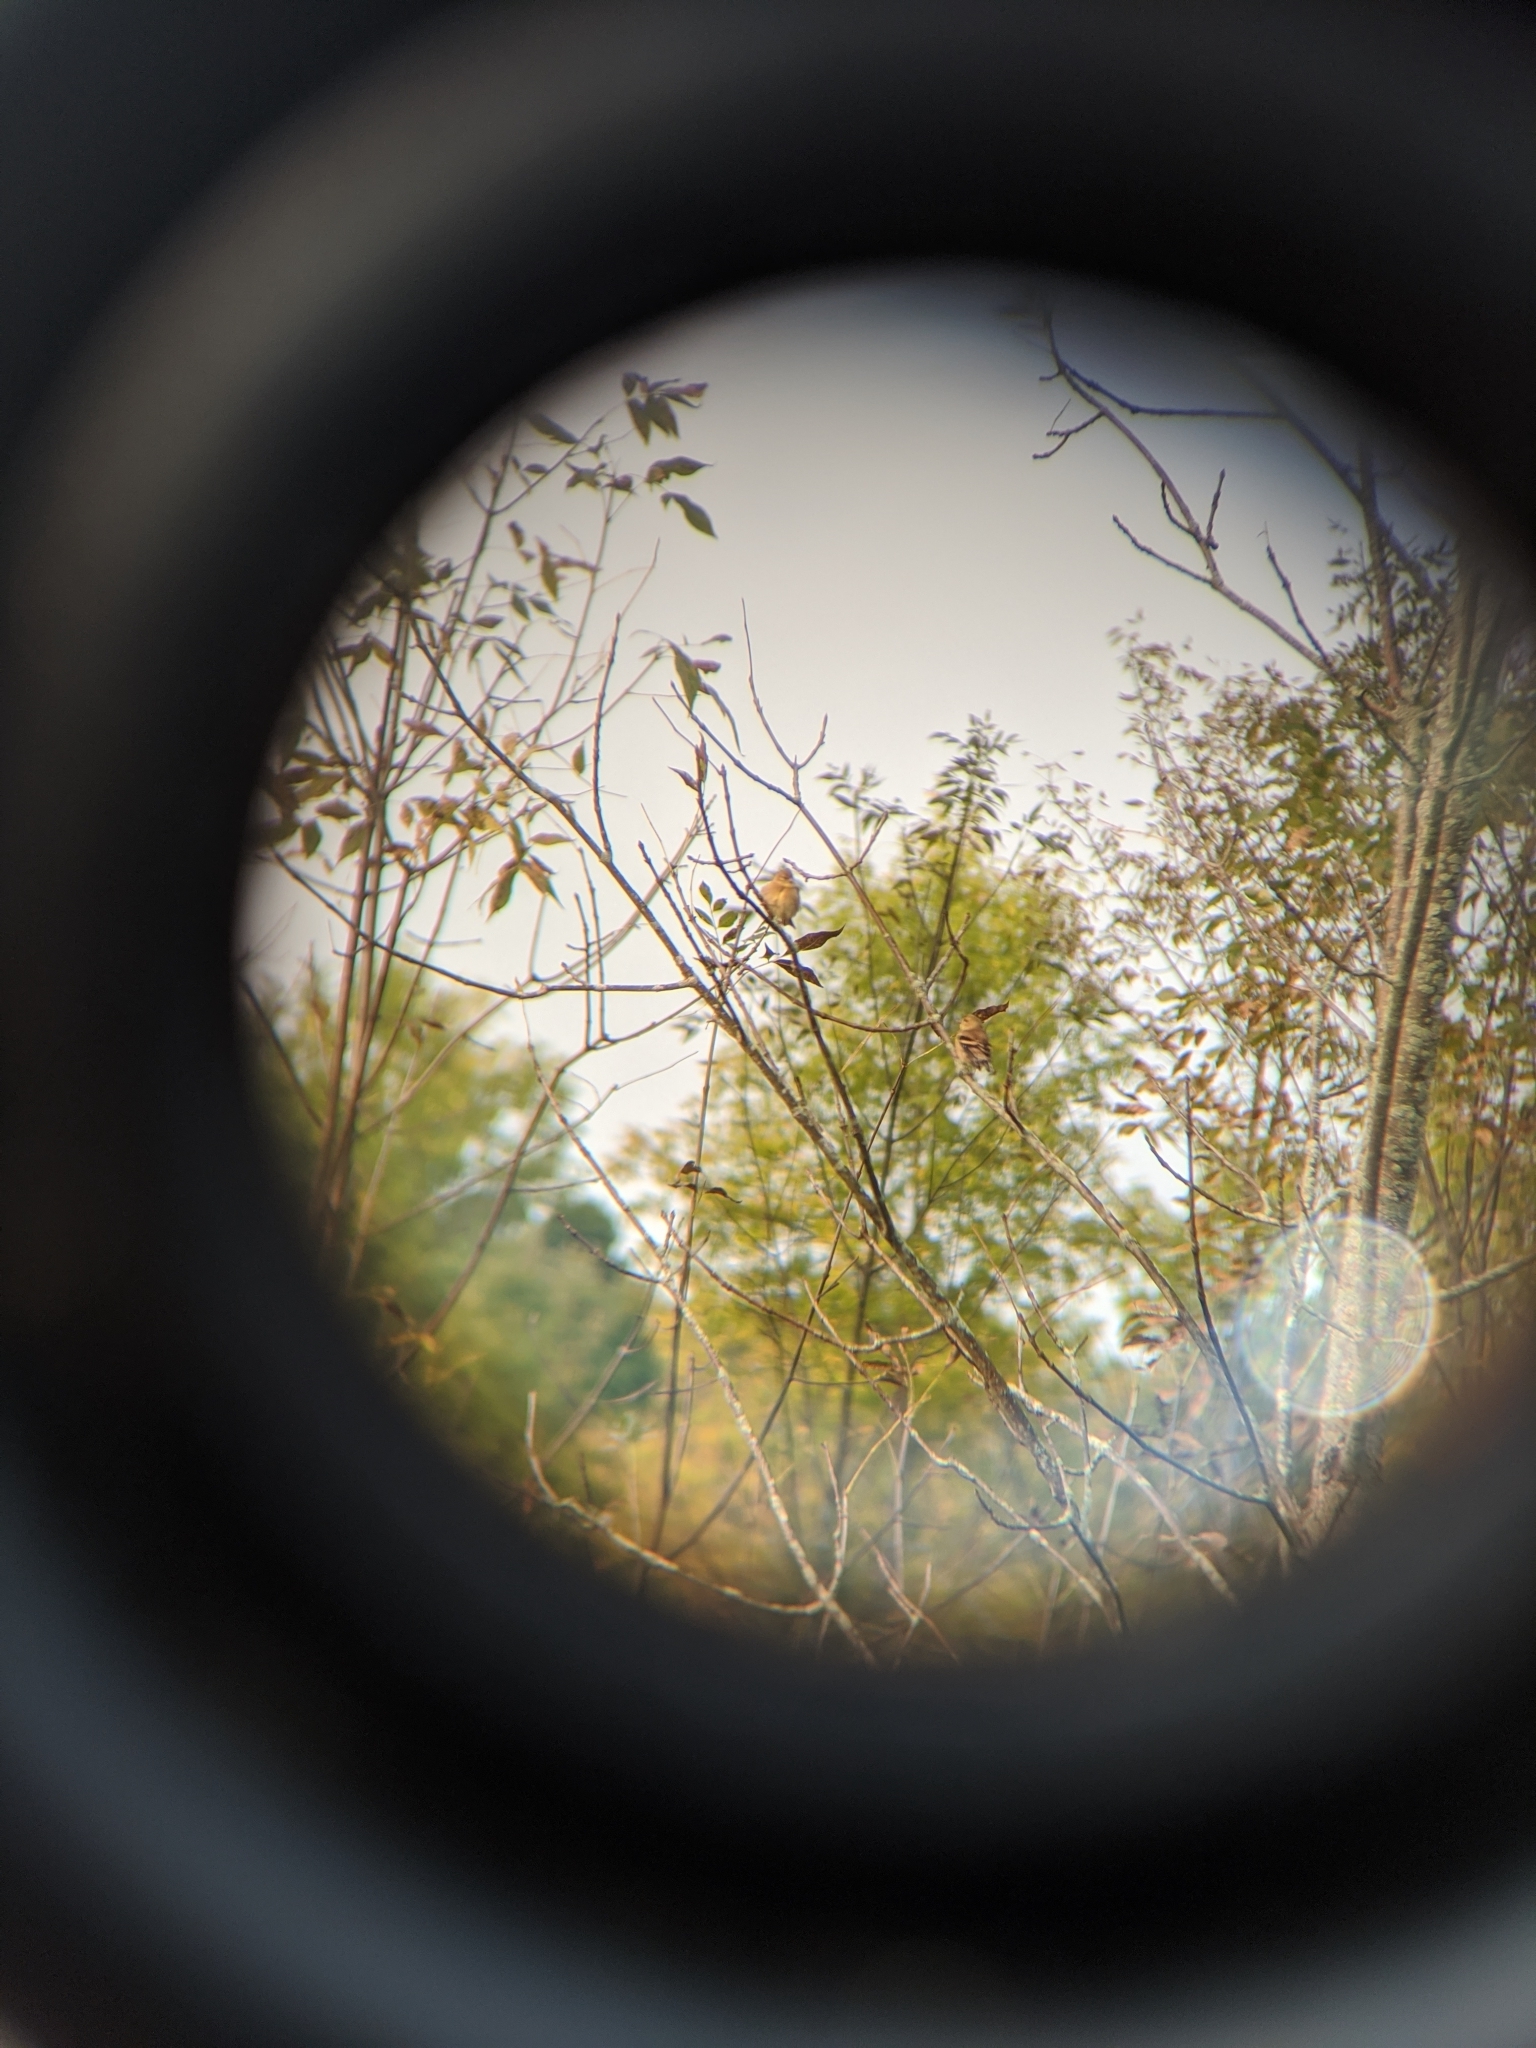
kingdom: Animalia
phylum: Chordata
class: Aves
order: Passeriformes
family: Fringillidae
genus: Spinus
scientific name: Spinus tristis
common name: American goldfinch
